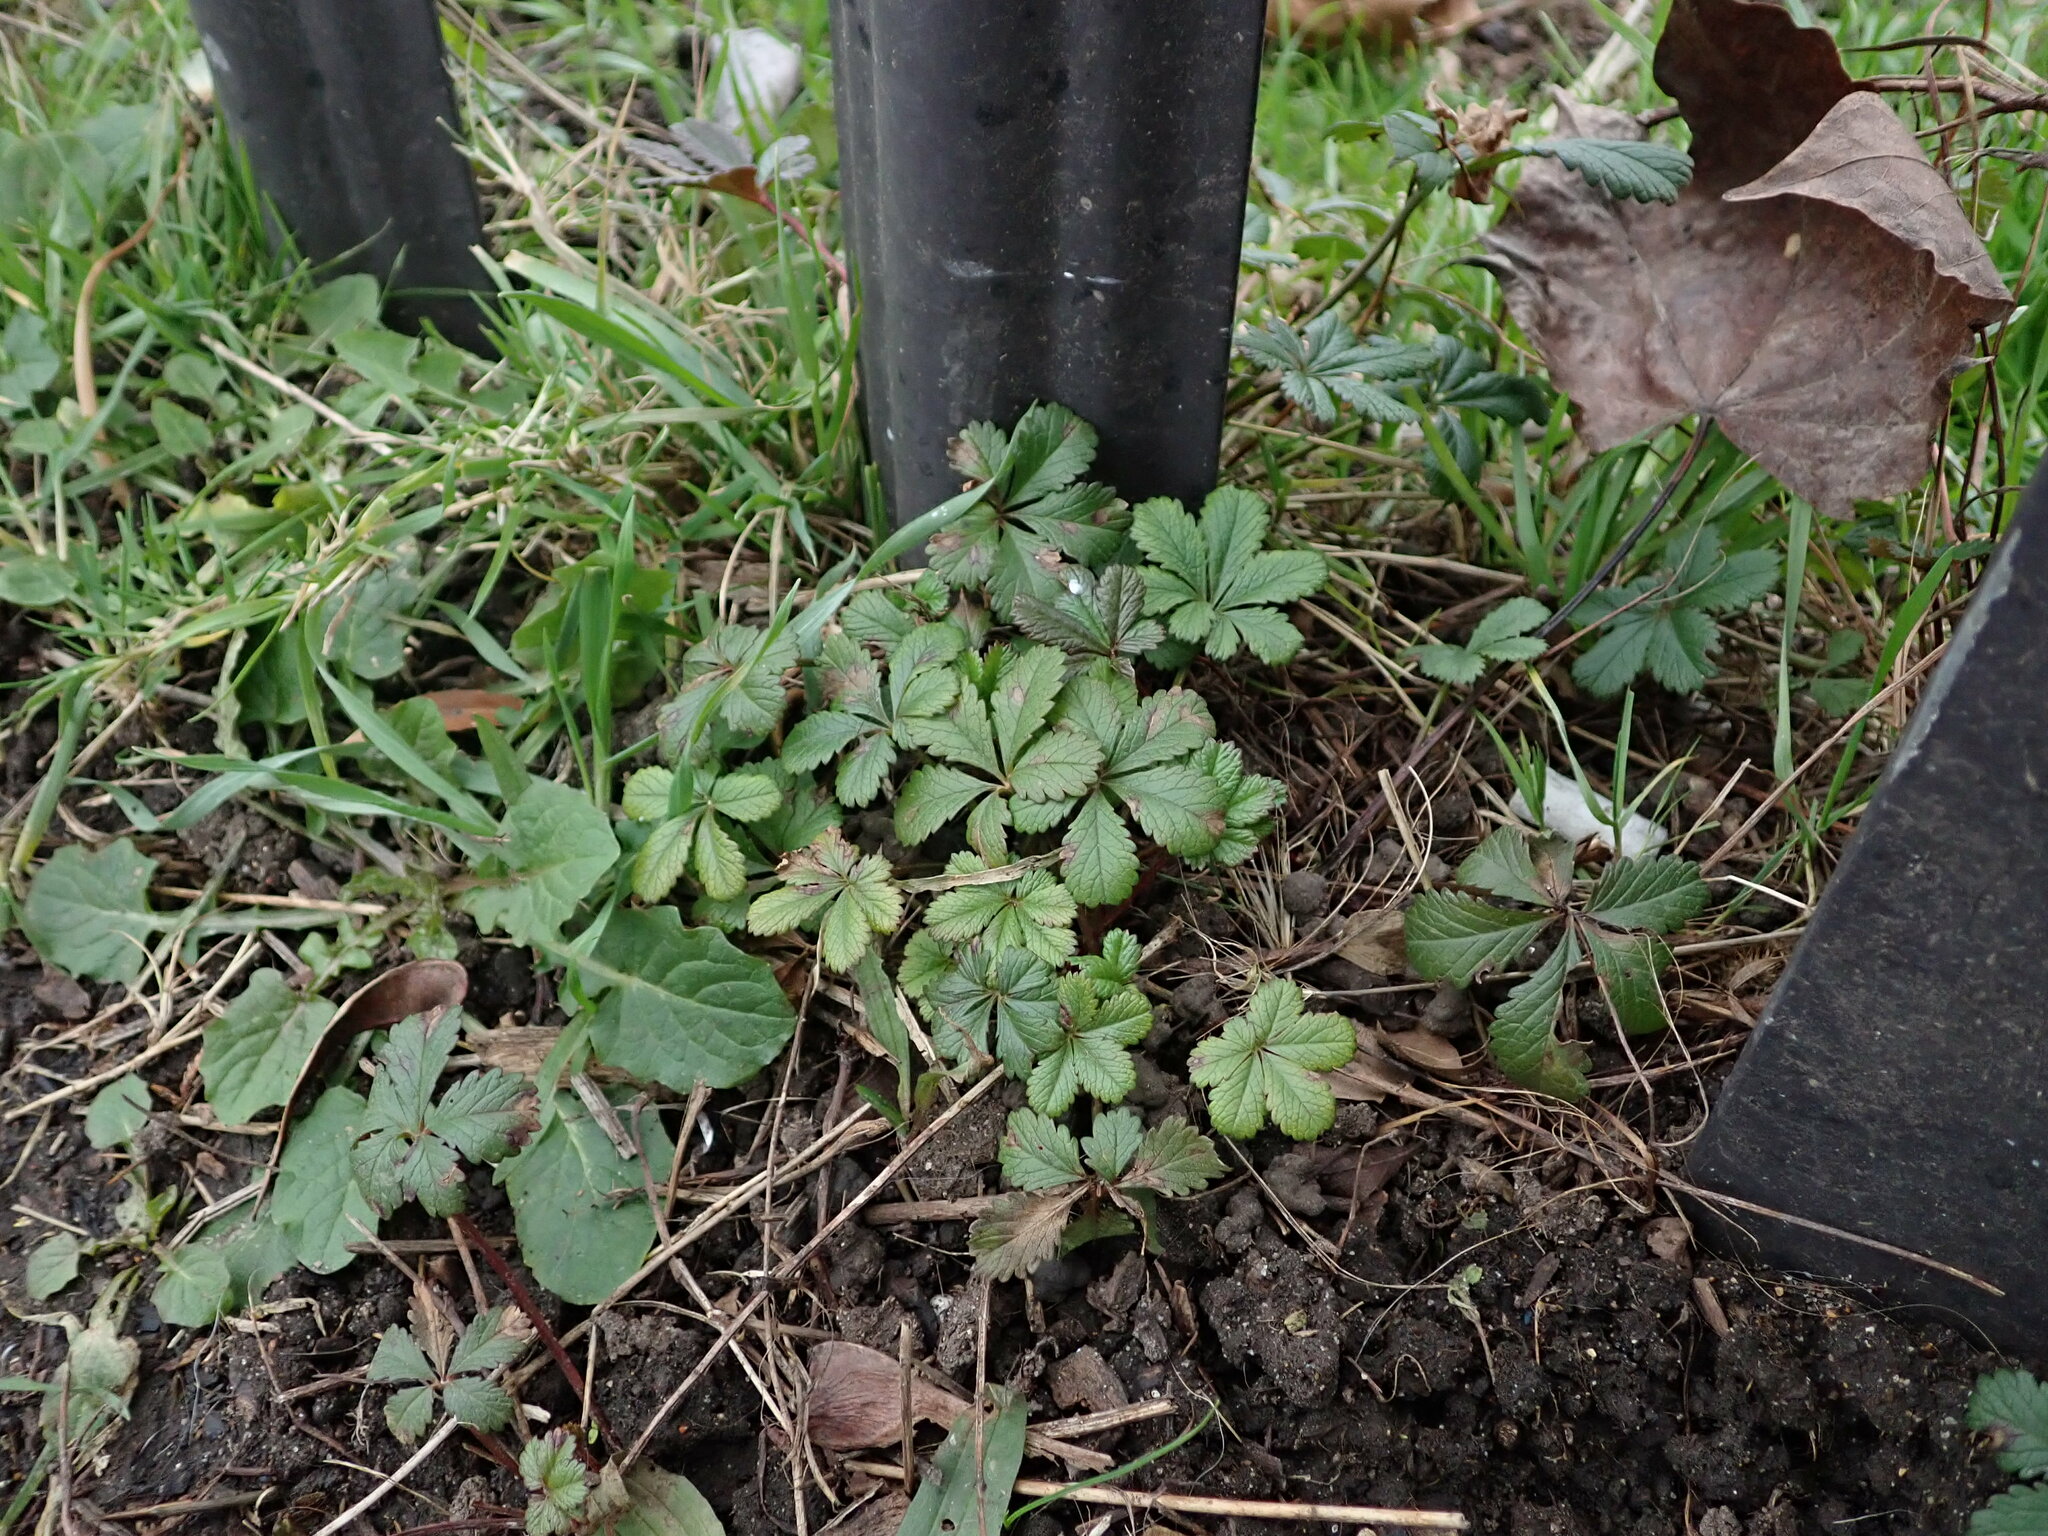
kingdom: Plantae
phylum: Tracheophyta
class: Magnoliopsida
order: Rosales
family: Rosaceae
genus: Potentilla
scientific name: Potentilla reptans
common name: Creeping cinquefoil
